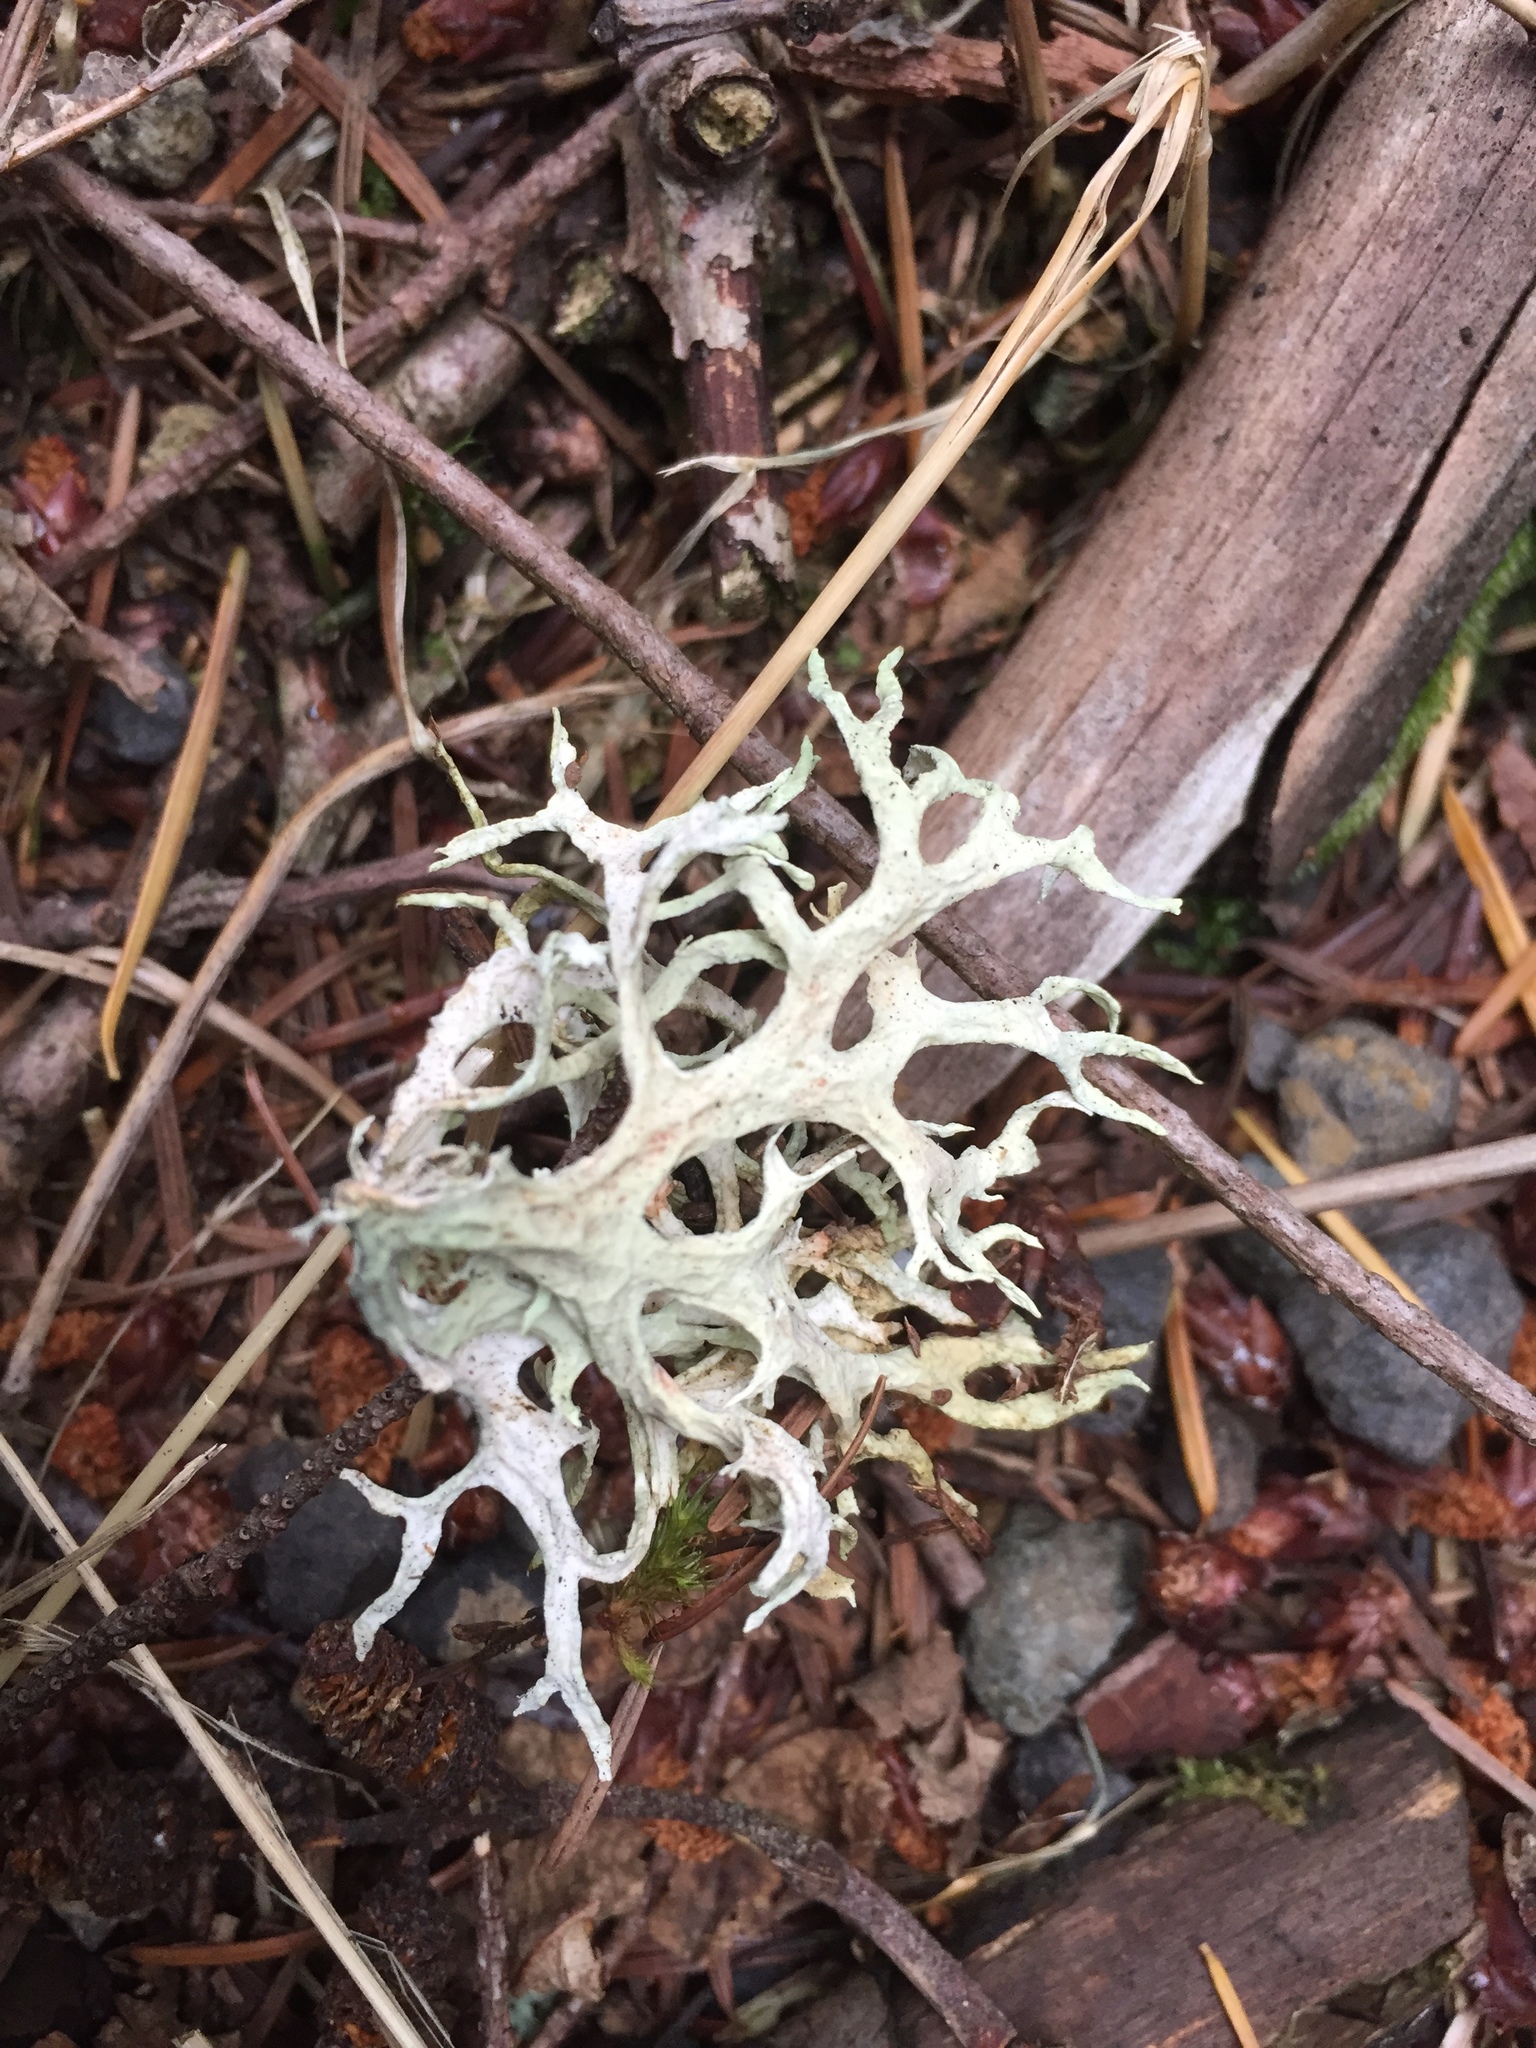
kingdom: Fungi
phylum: Ascomycota
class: Lecanoromycetes
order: Lecanorales
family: Parmeliaceae
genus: Evernia
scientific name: Evernia prunastri
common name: Oak moss
